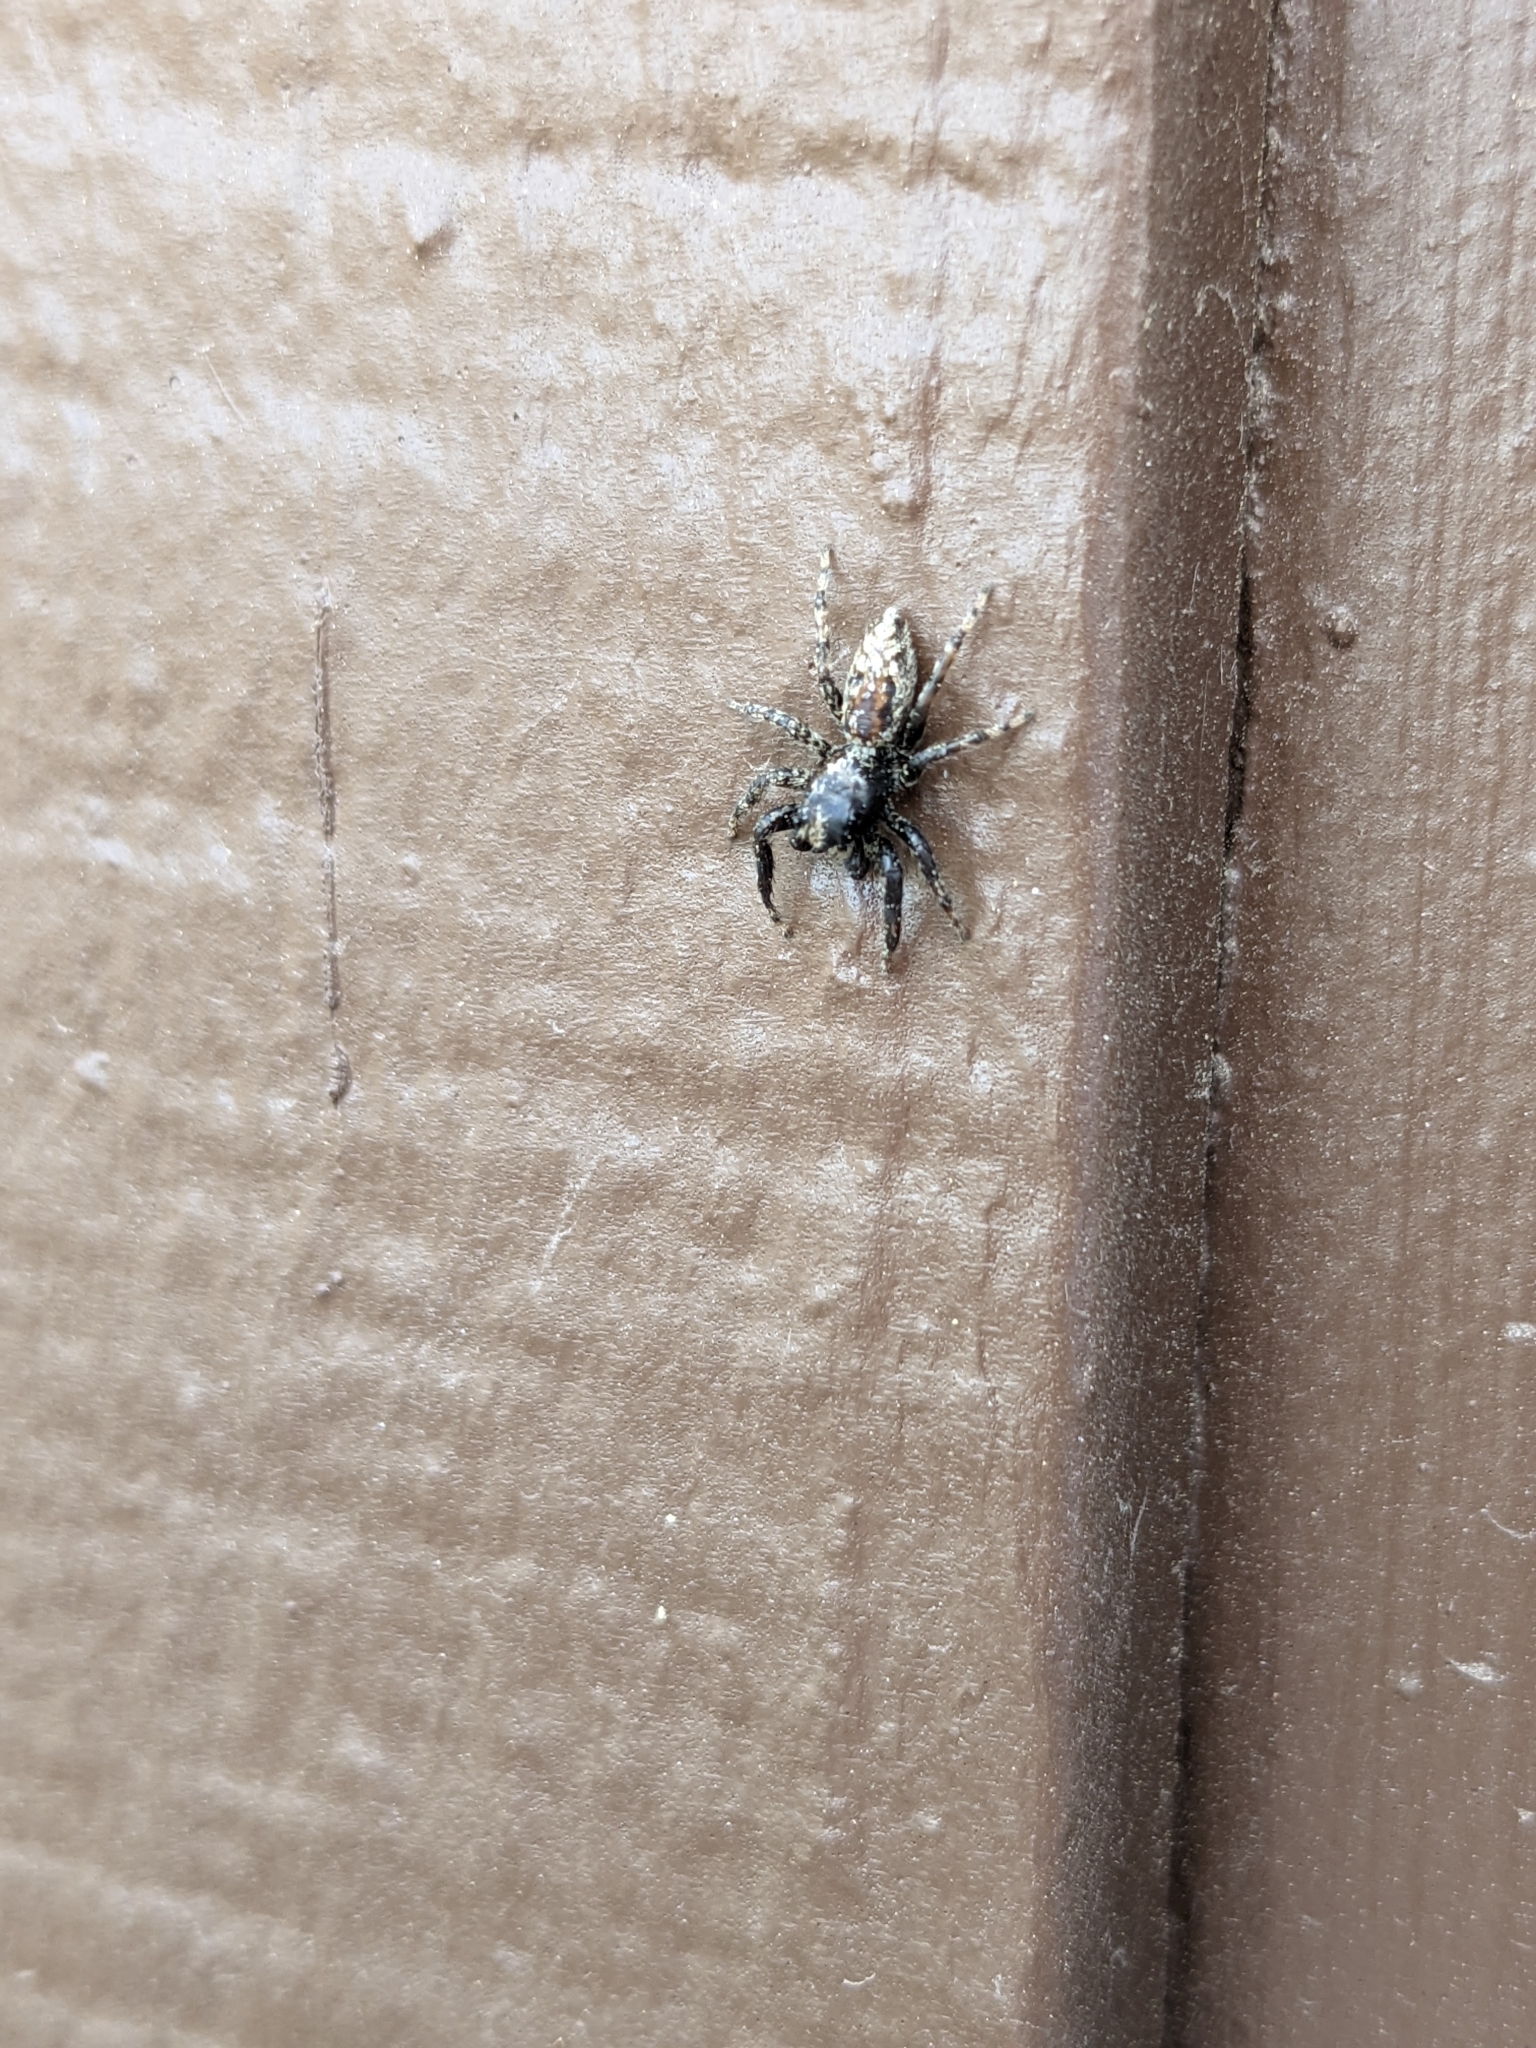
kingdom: Animalia
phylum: Arthropoda
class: Arachnida
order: Araneae
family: Salticidae
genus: Platycryptus
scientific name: Platycryptus californicus
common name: Jumping spiders
